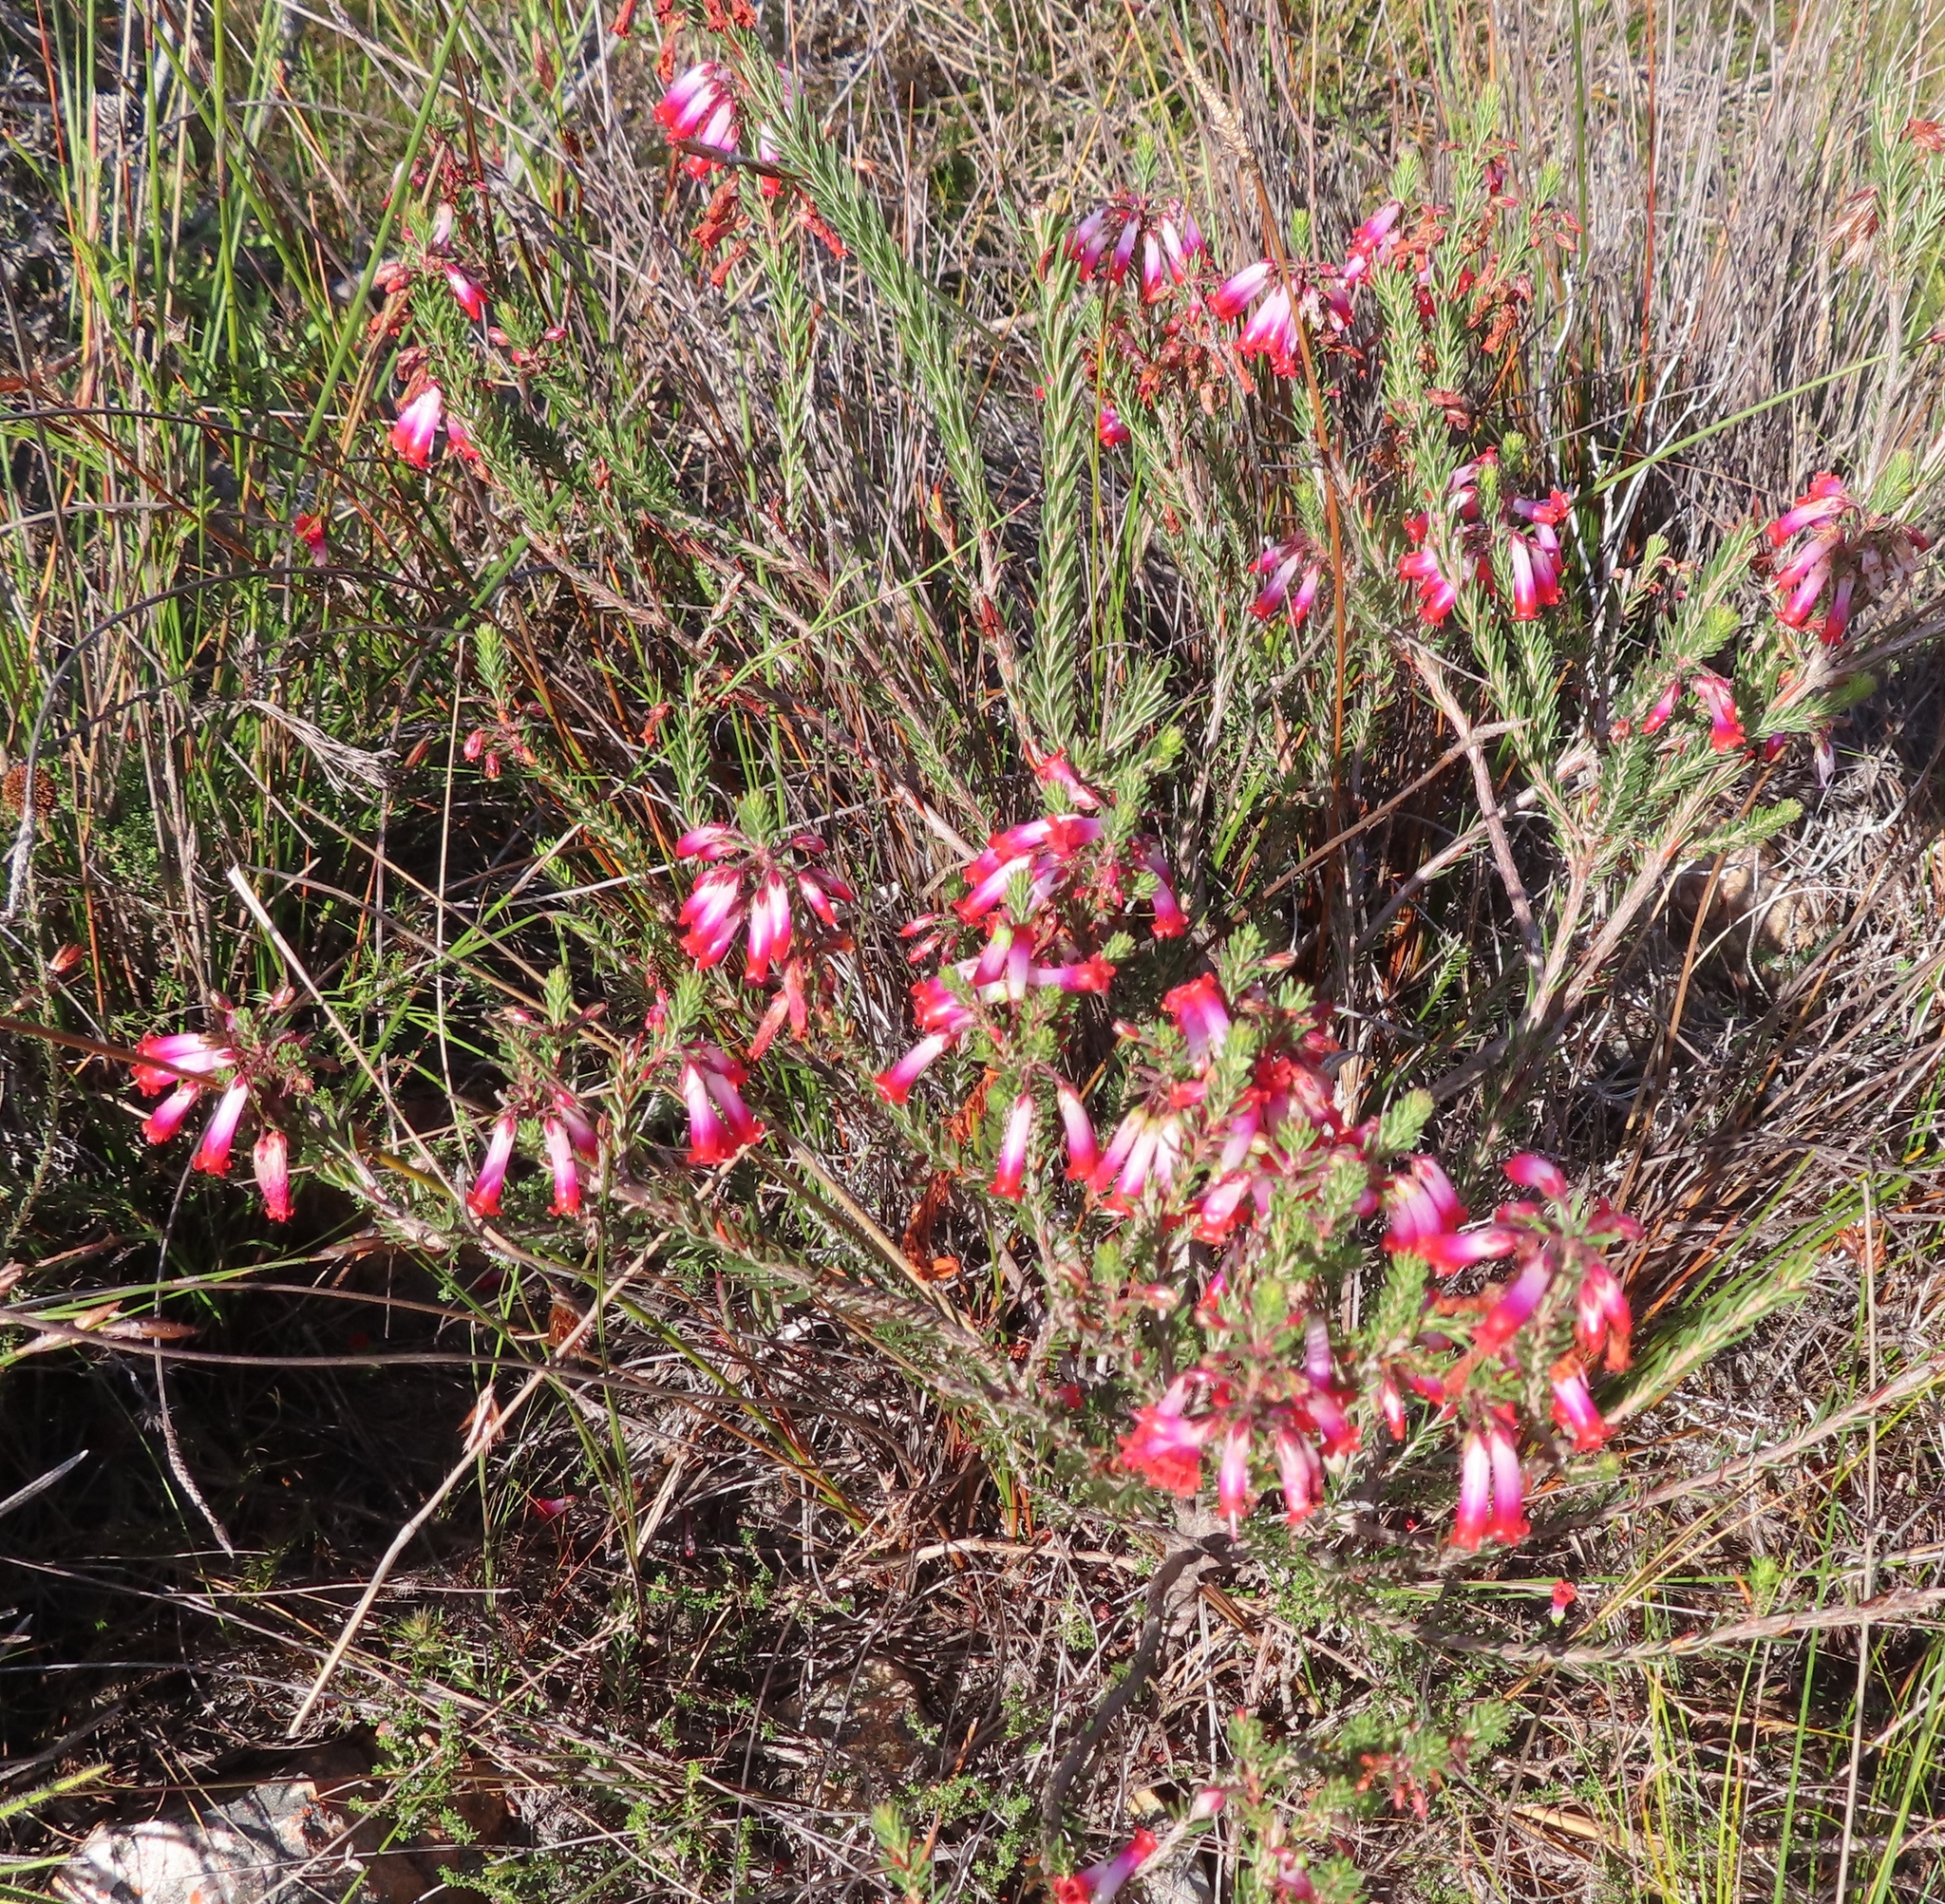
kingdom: Plantae
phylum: Tracheophyta
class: Magnoliopsida
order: Ericales
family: Ericaceae
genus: Erica
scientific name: Erica regia
